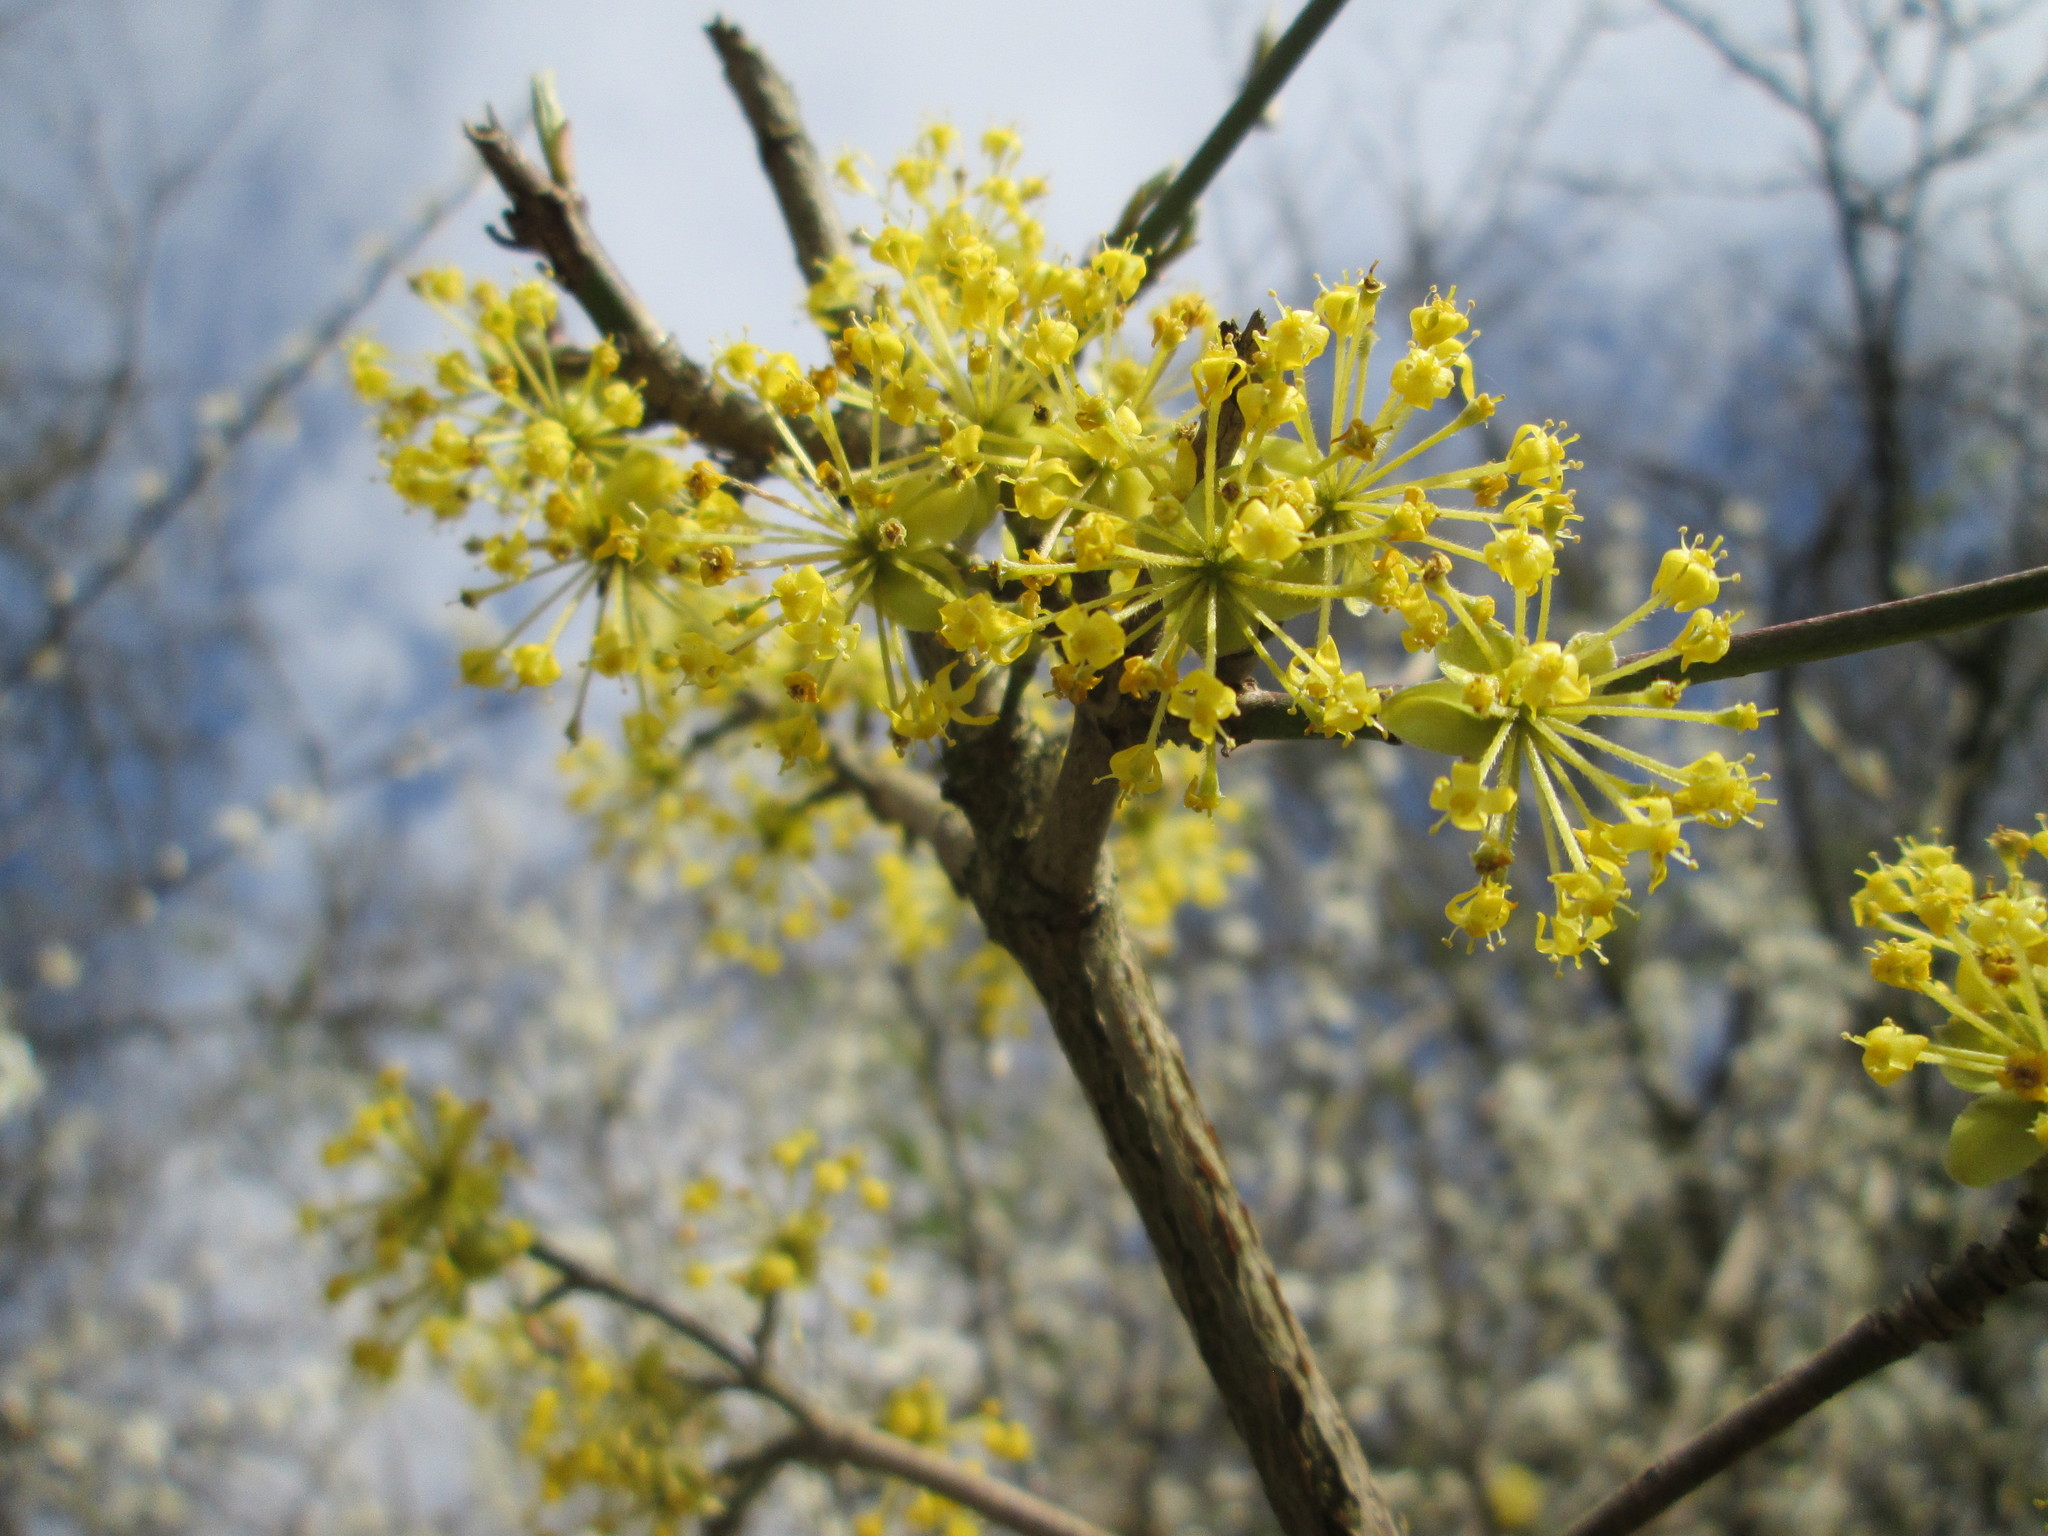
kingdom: Plantae
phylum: Tracheophyta
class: Magnoliopsida
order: Cornales
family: Cornaceae
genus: Cornus
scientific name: Cornus mas
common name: Cornelian-cherry
